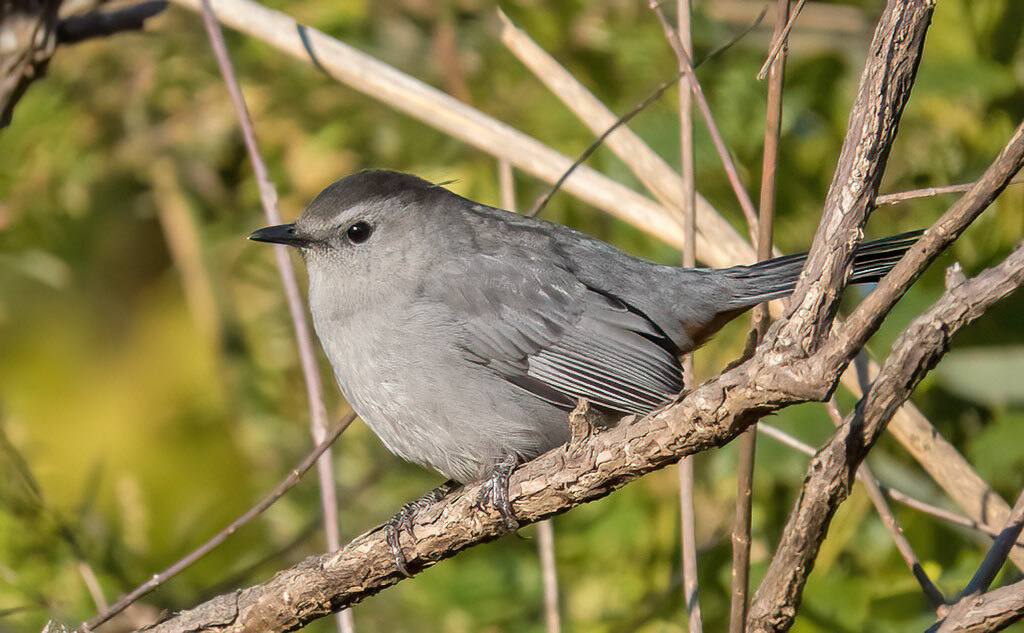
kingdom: Animalia
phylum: Chordata
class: Aves
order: Passeriformes
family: Mimidae
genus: Dumetella
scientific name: Dumetella carolinensis
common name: Gray catbird
